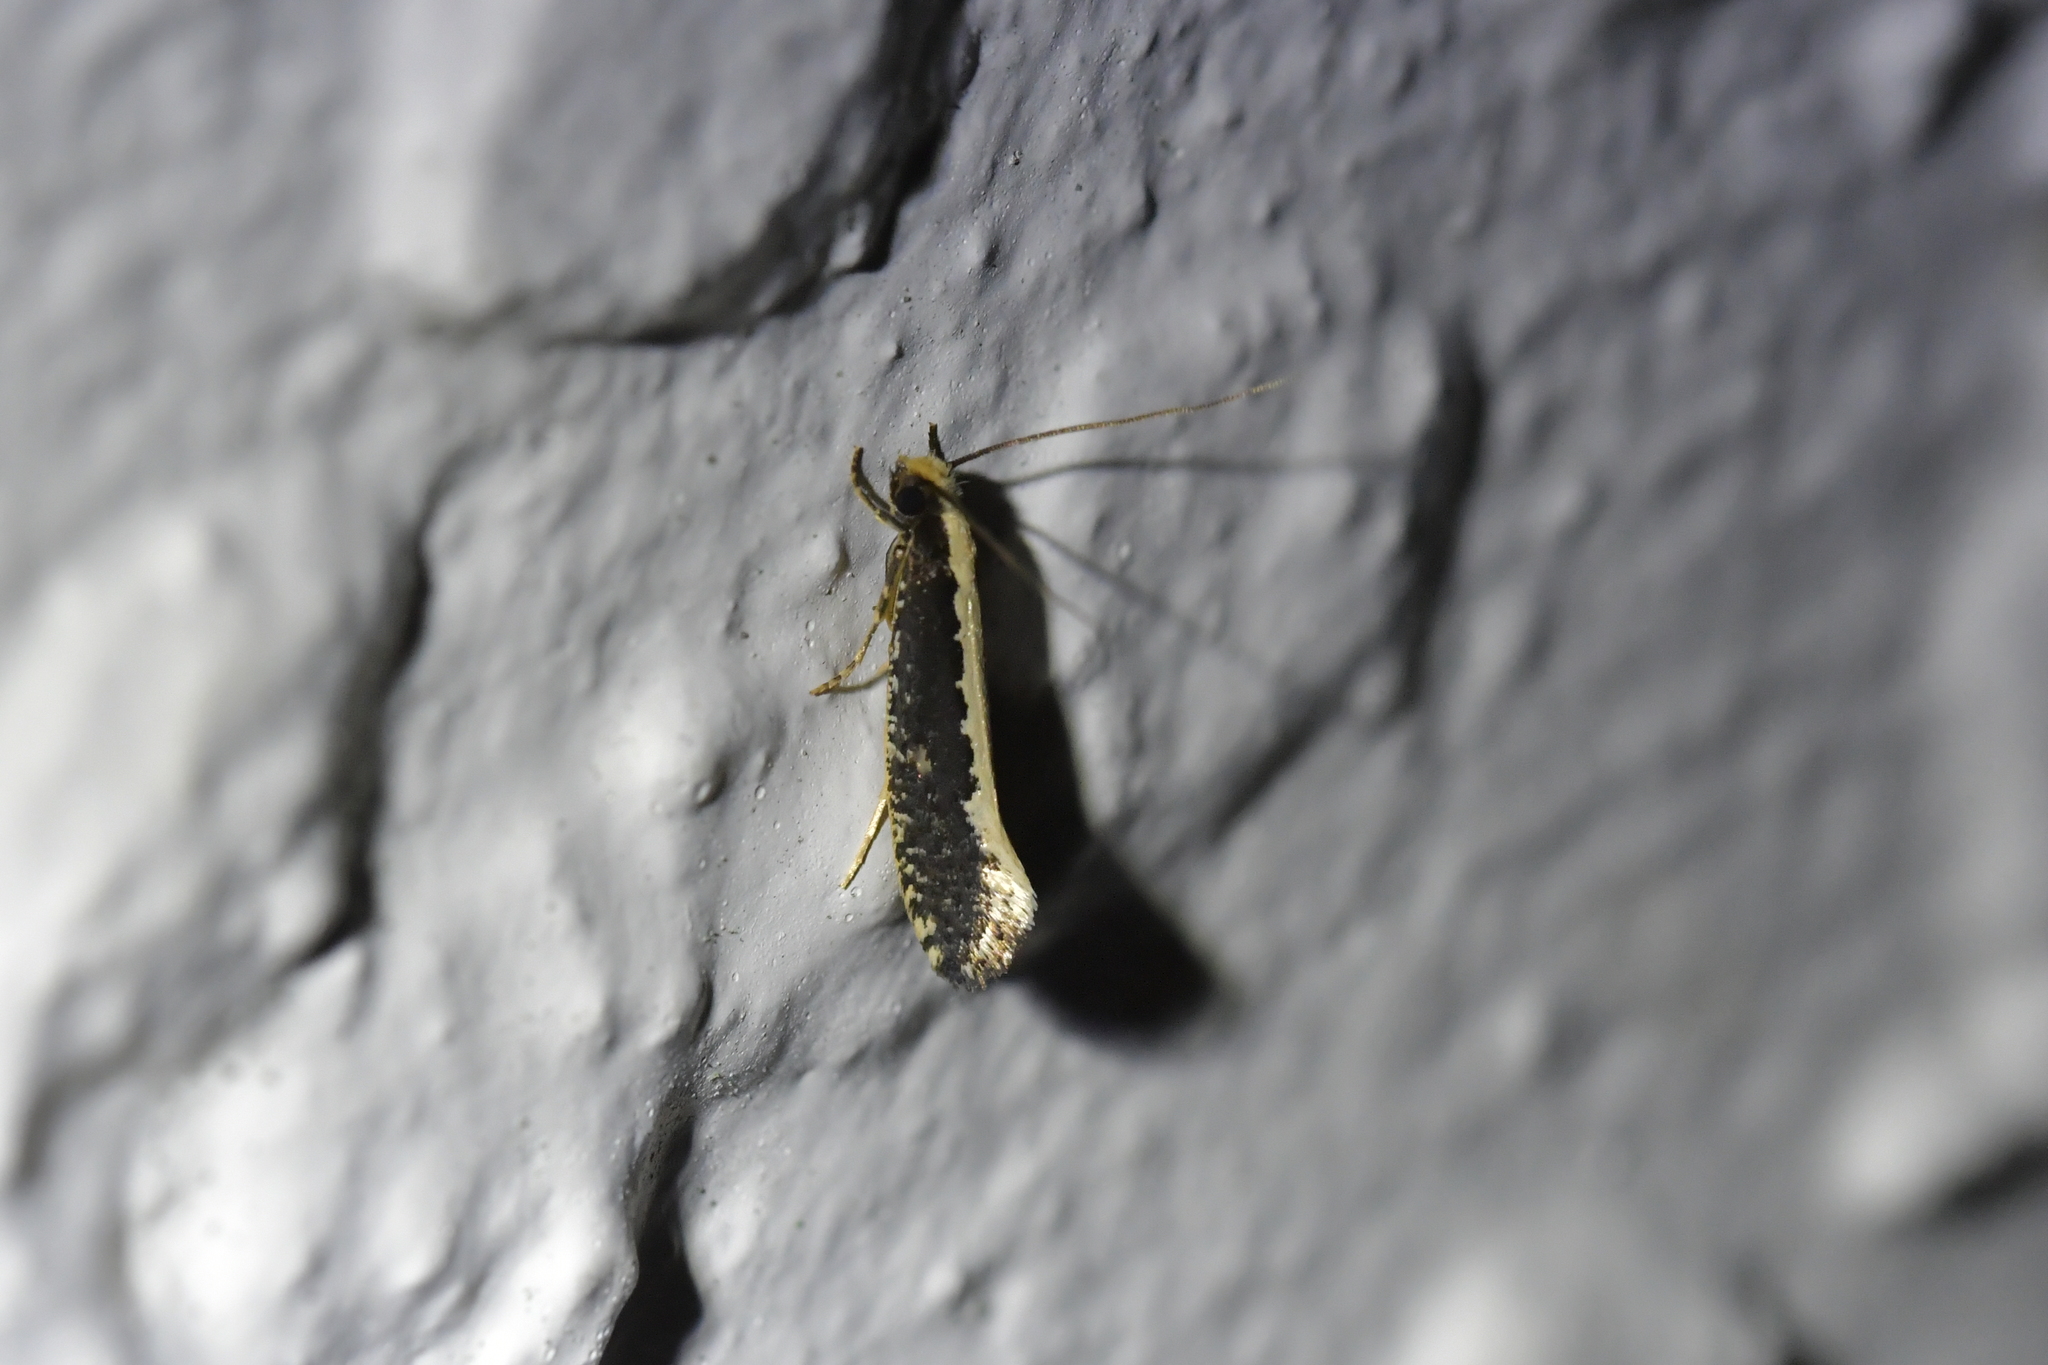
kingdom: Animalia
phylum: Arthropoda
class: Insecta
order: Lepidoptera
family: Tineidae
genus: Monopis
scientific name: Monopis ethelella
